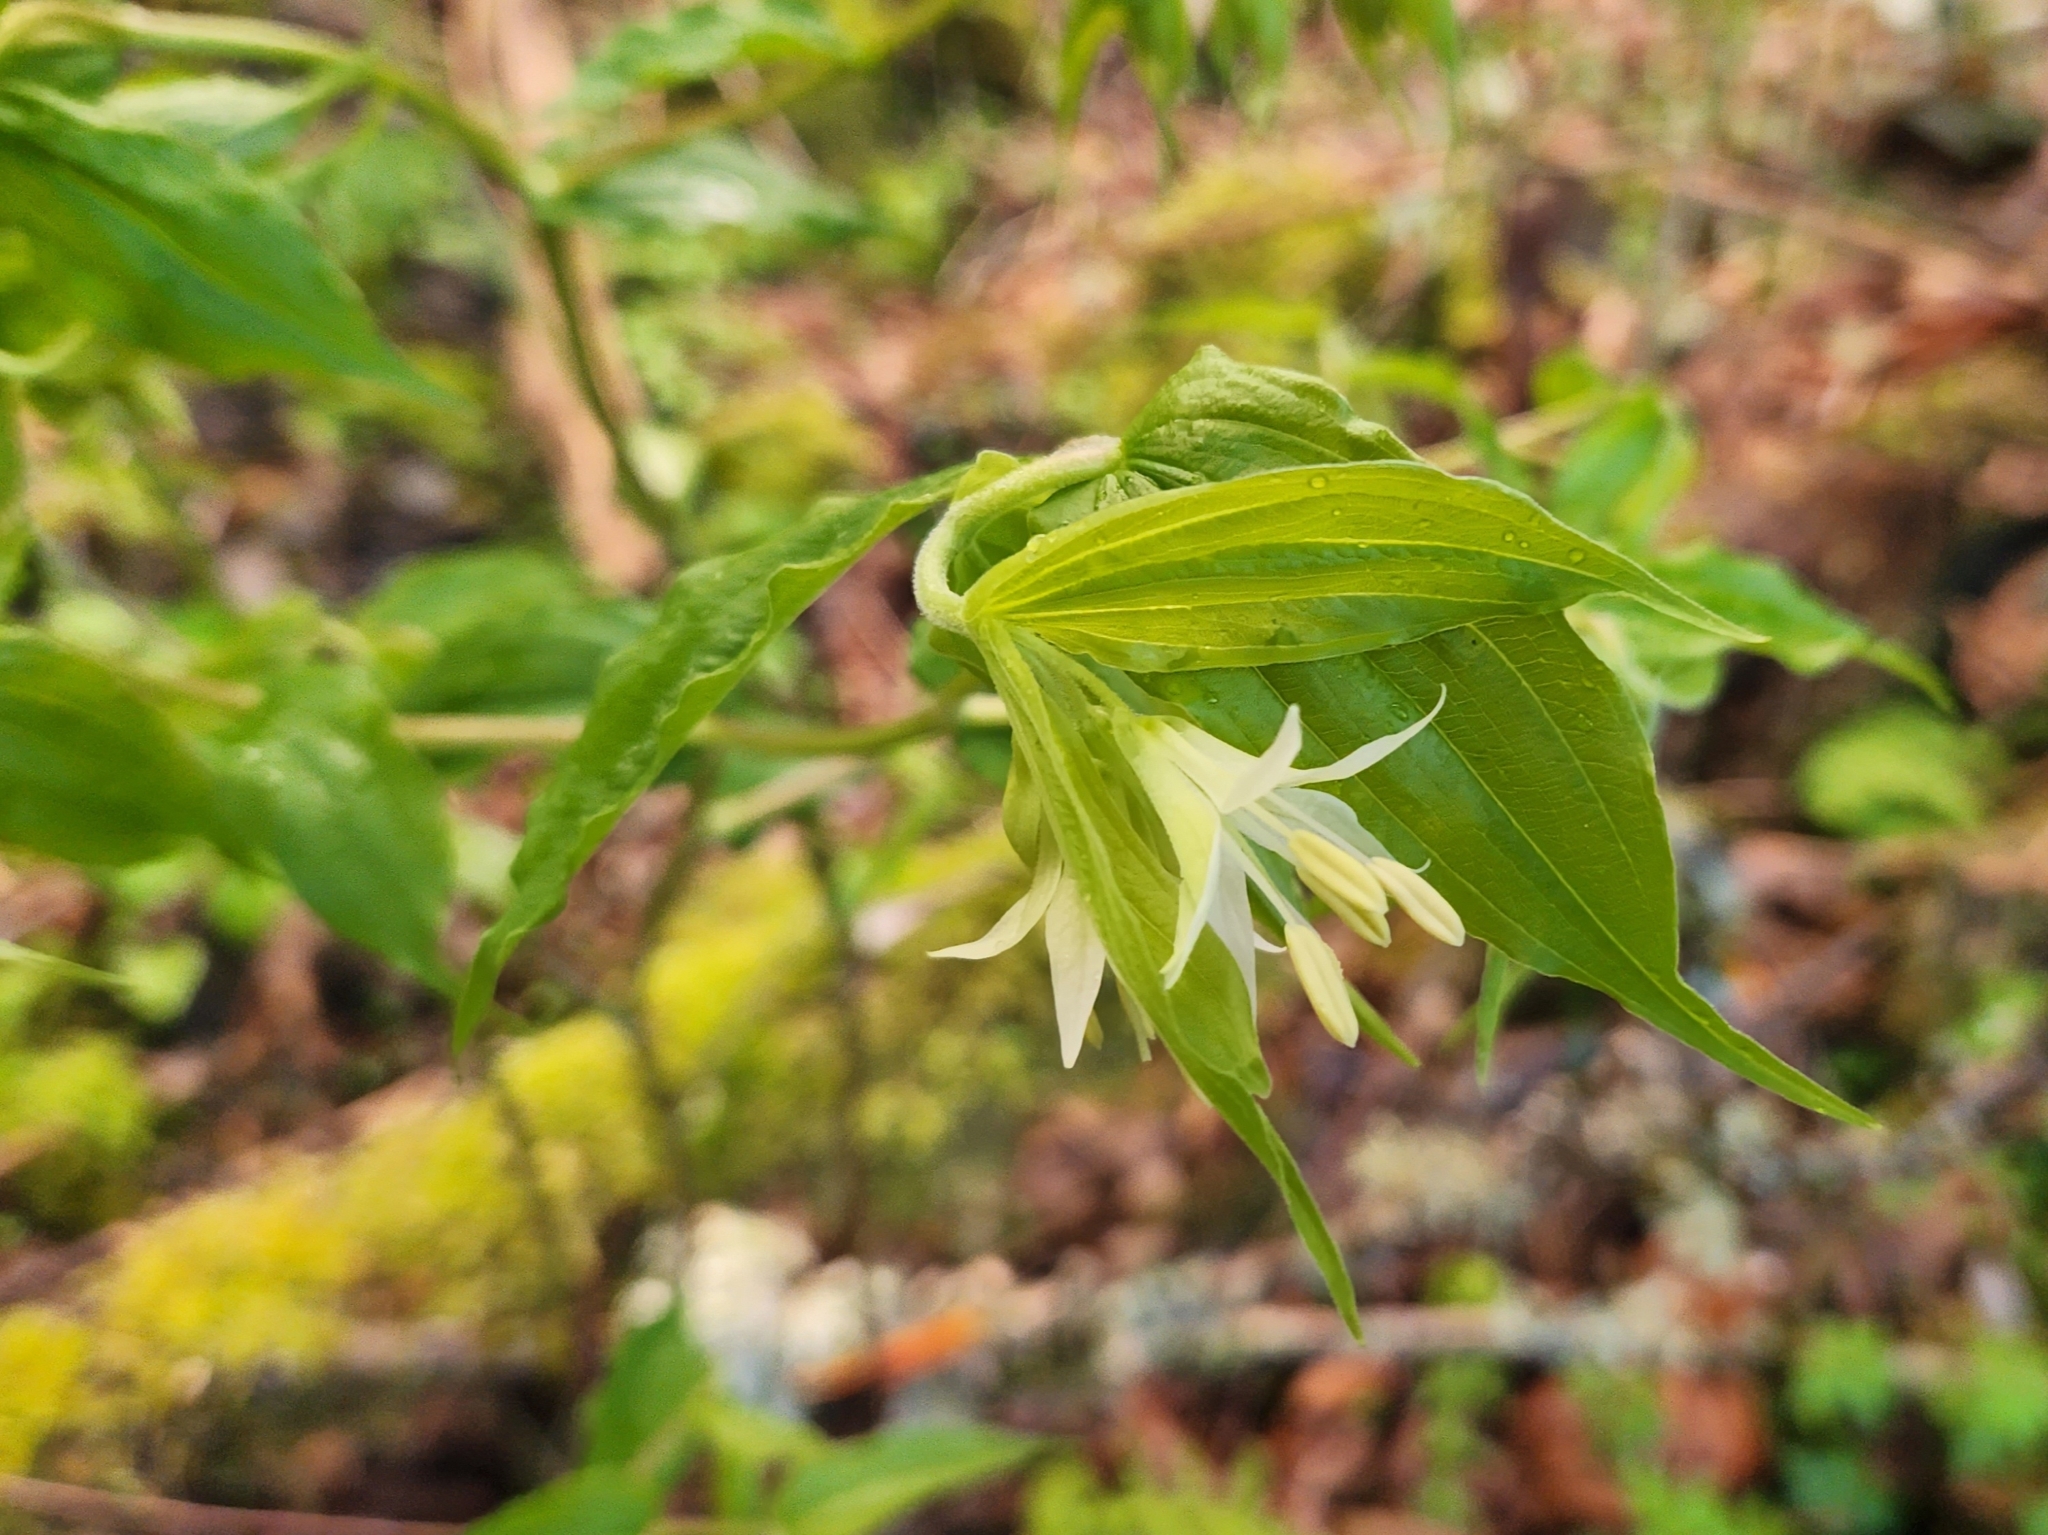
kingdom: Plantae
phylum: Tracheophyta
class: Liliopsida
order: Liliales
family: Liliaceae
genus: Prosartes
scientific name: Prosartes hookeri
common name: Fairy-bells
